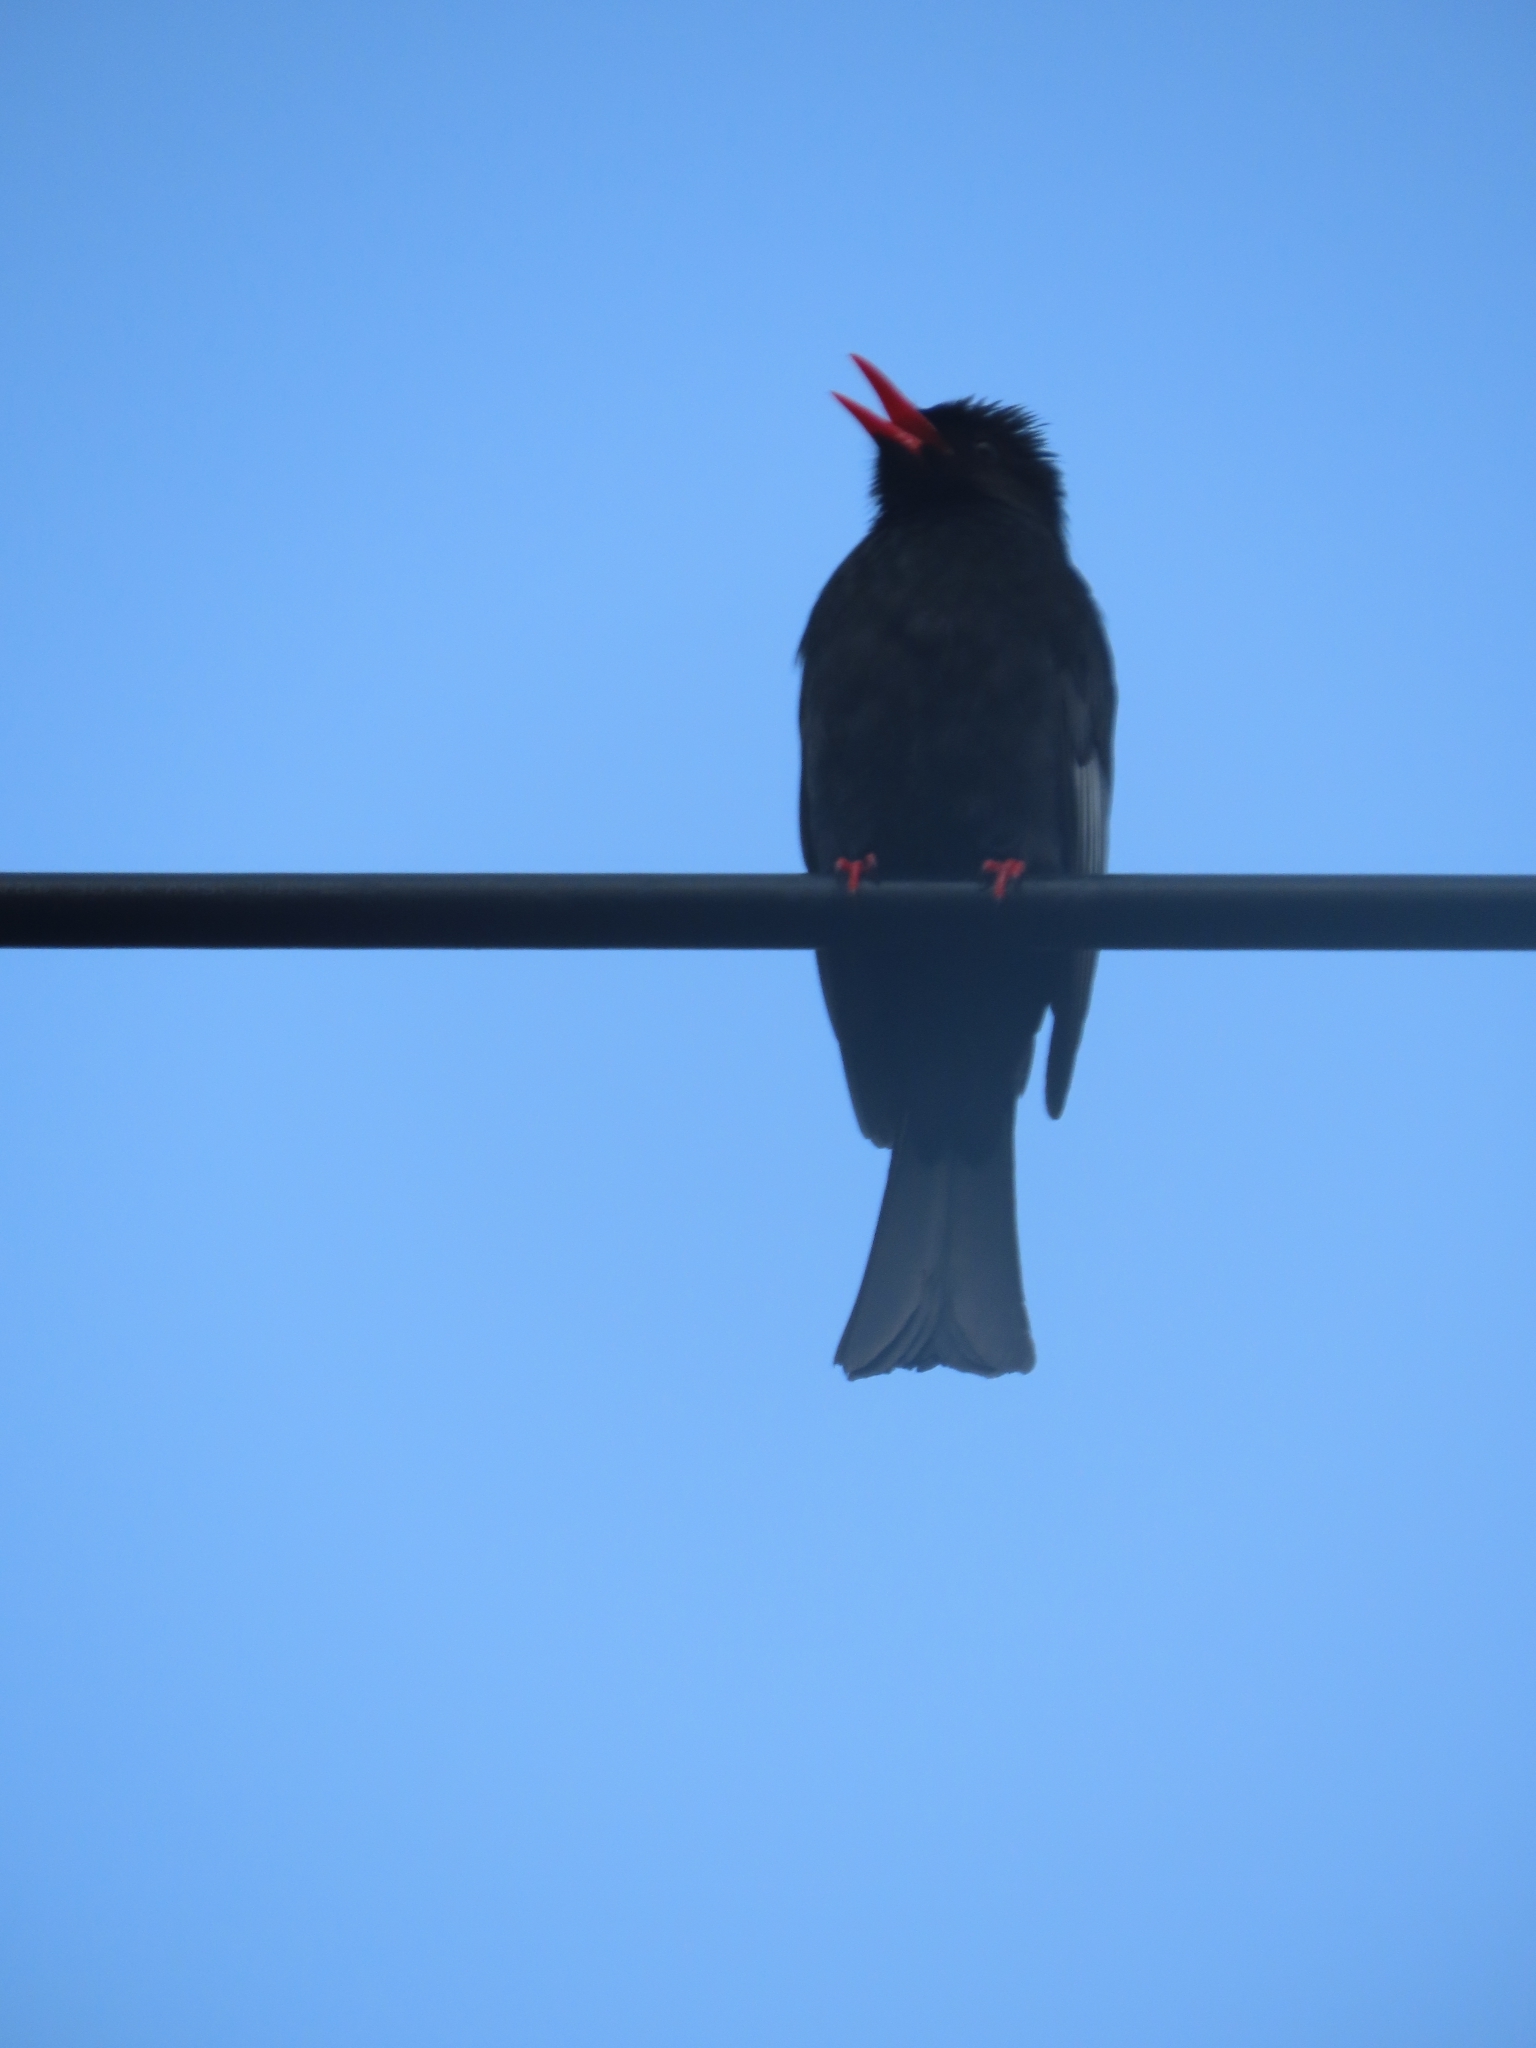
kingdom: Animalia
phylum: Chordata
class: Aves
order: Passeriformes
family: Pycnonotidae
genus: Hypsipetes
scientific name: Hypsipetes leucocephalus
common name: Black bulbul
